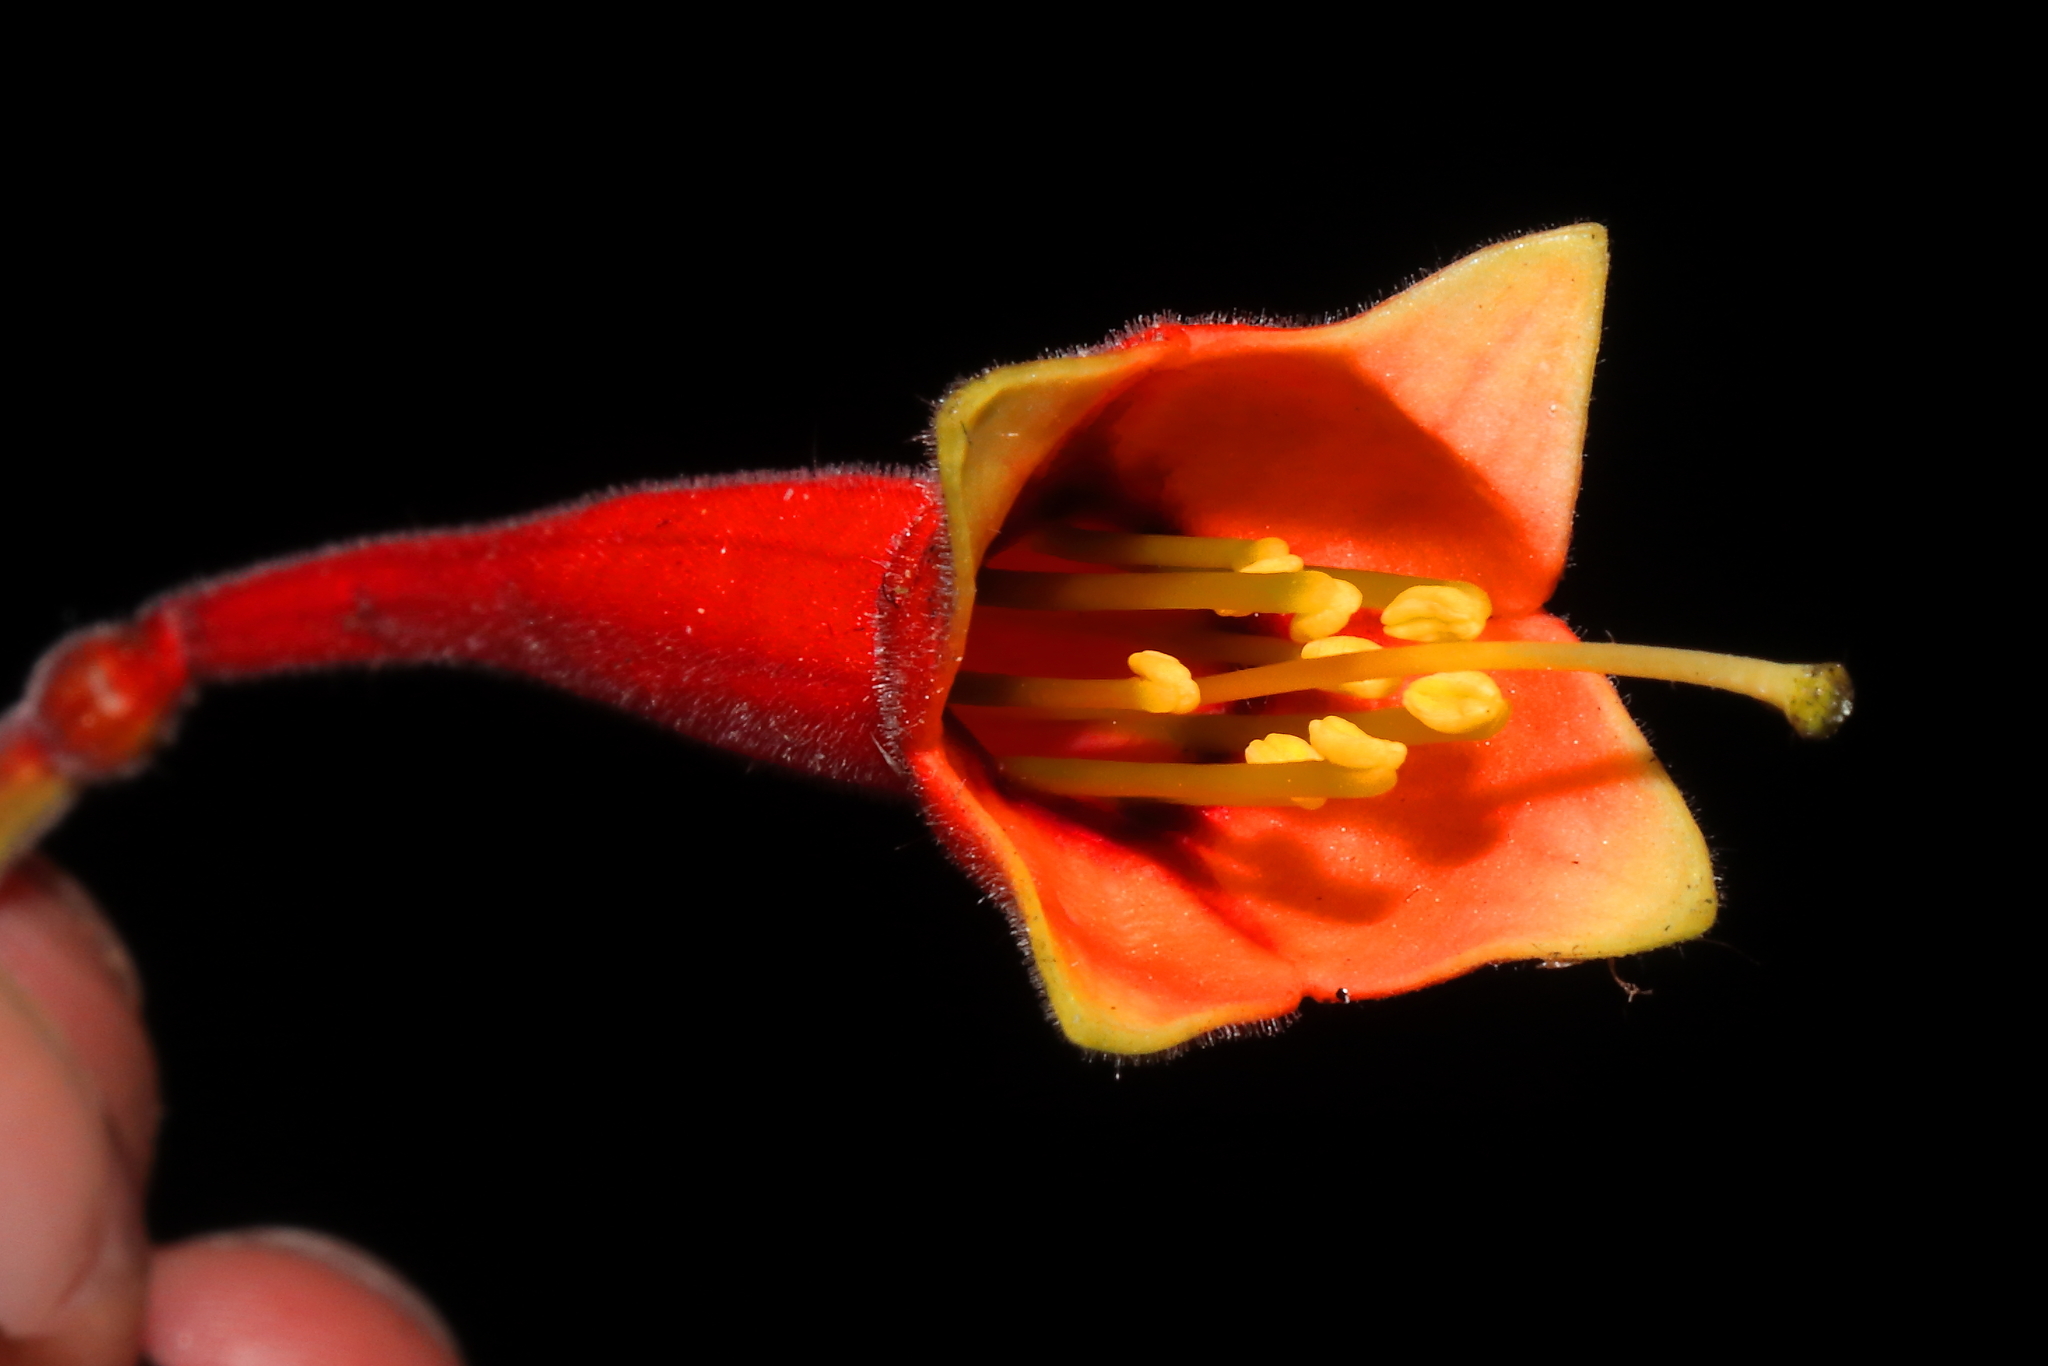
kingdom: Plantae
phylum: Tracheophyta
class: Magnoliopsida
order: Myrtales
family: Onagraceae
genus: Fuchsia
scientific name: Fuchsia apetala
